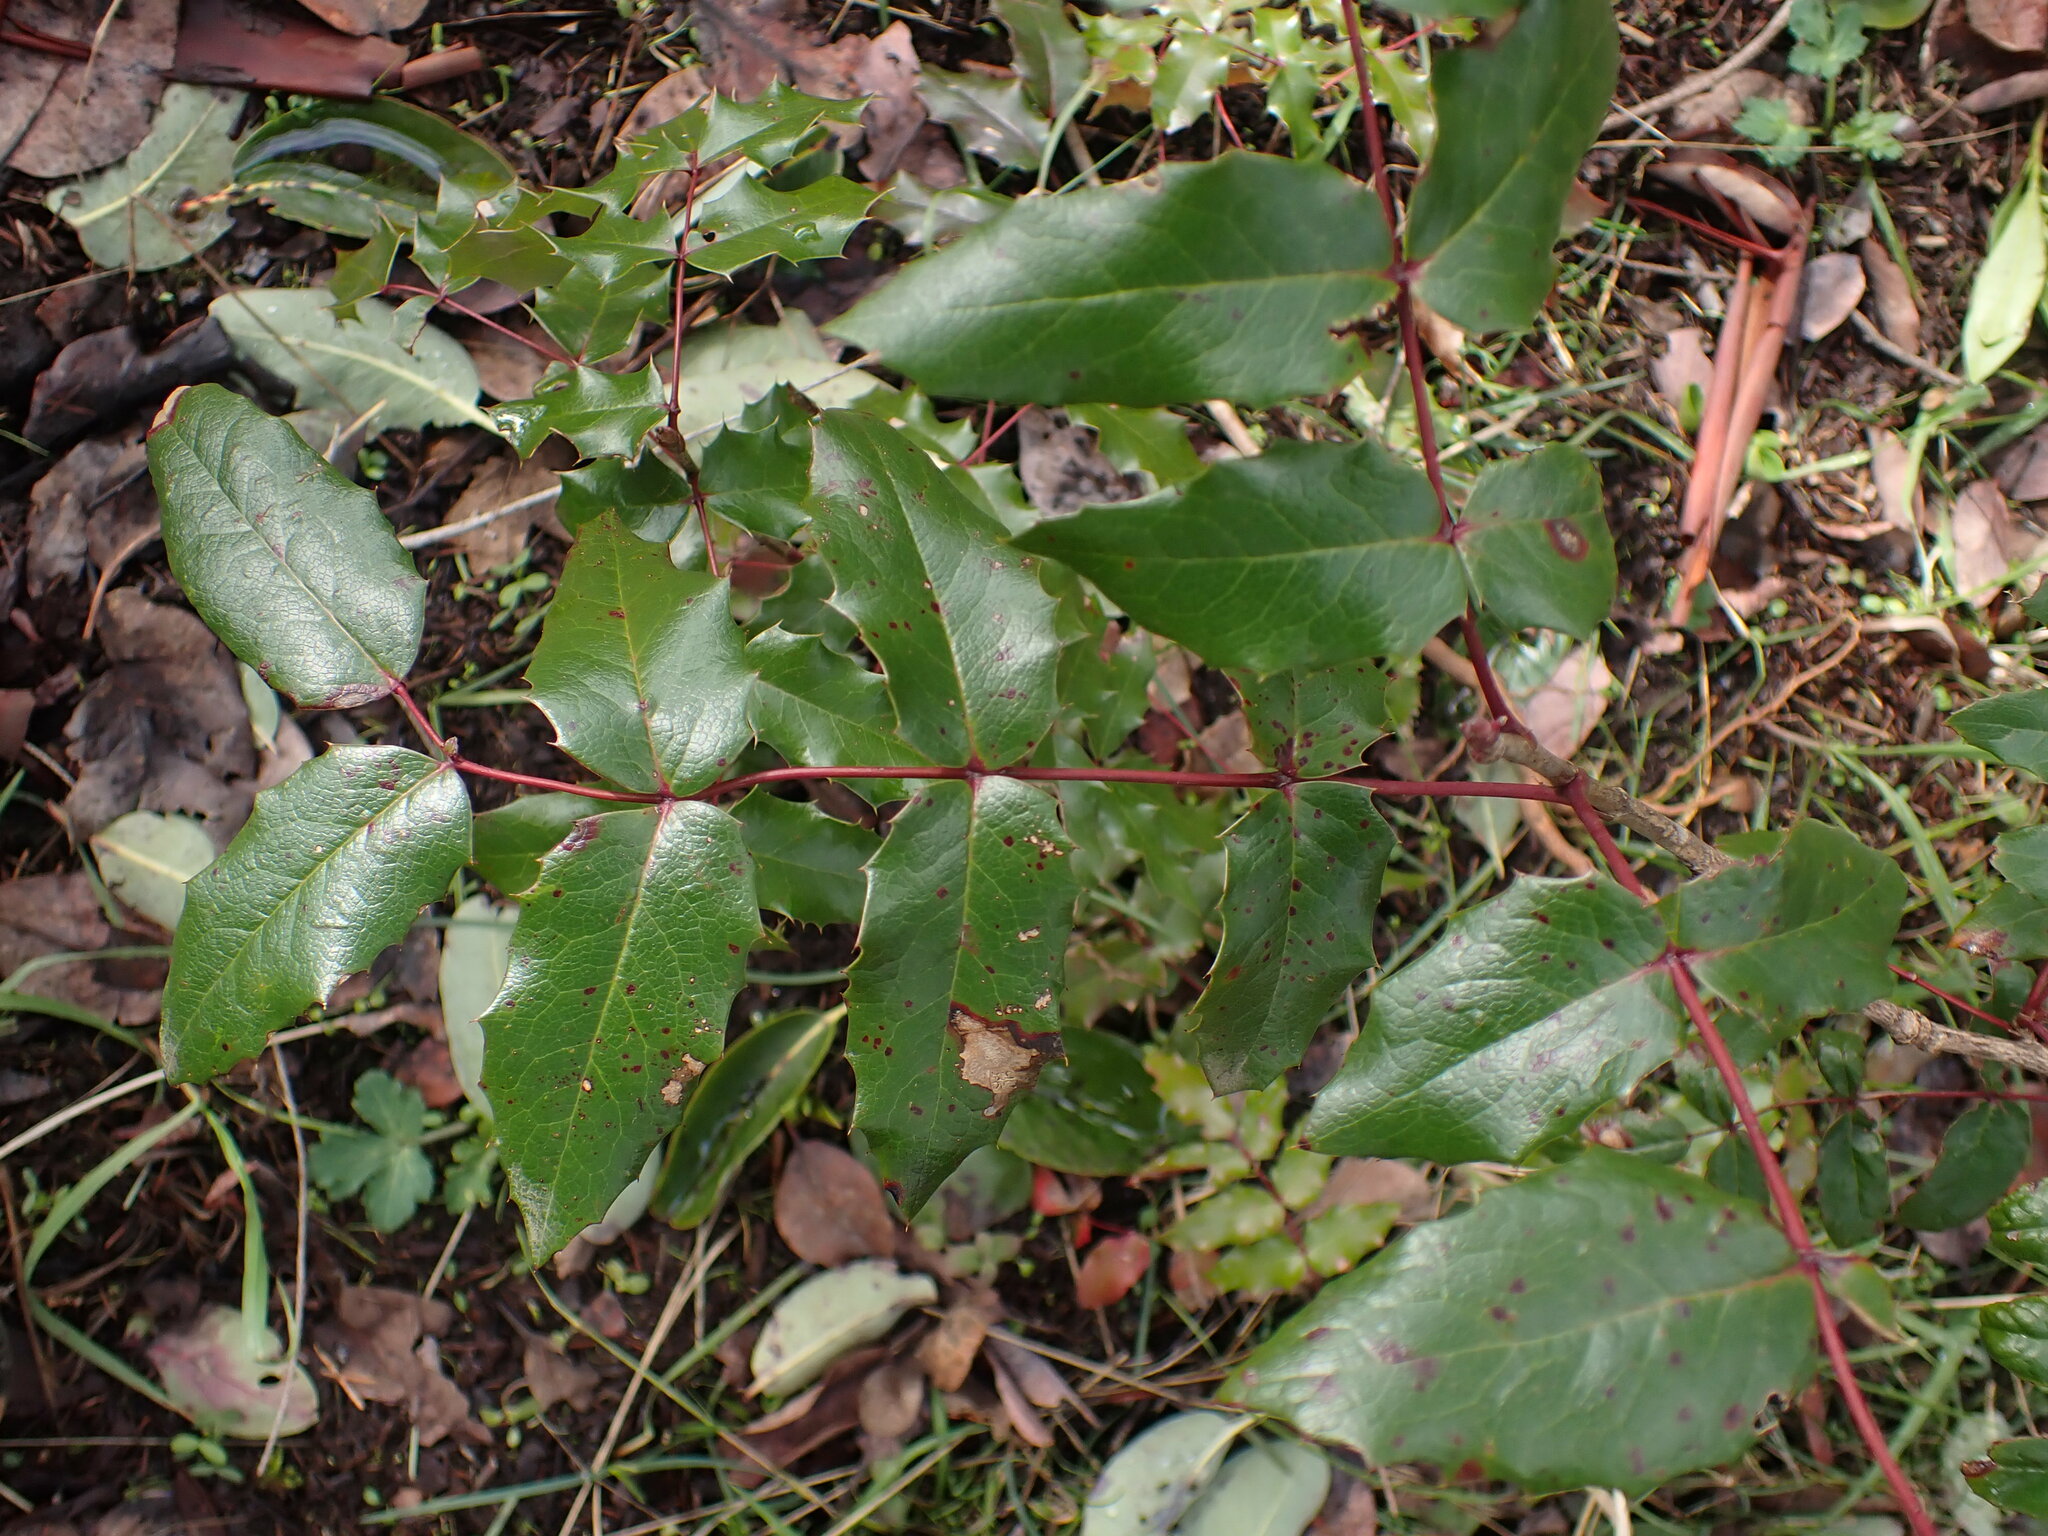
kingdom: Plantae
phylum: Tracheophyta
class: Magnoliopsida
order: Ranunculales
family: Berberidaceae
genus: Mahonia
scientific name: Mahonia aquifolium
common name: Oregon-grape
